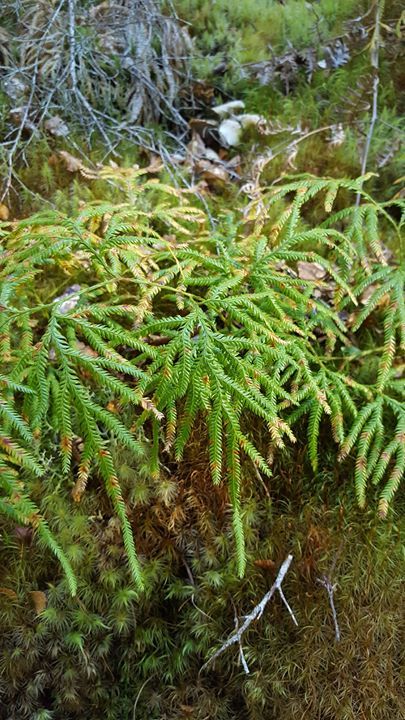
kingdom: Plantae
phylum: Tracheophyta
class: Lycopodiopsida
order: Lycopodiales
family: Lycopodiaceae
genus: Lycopodium
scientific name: Lycopodium volubile
